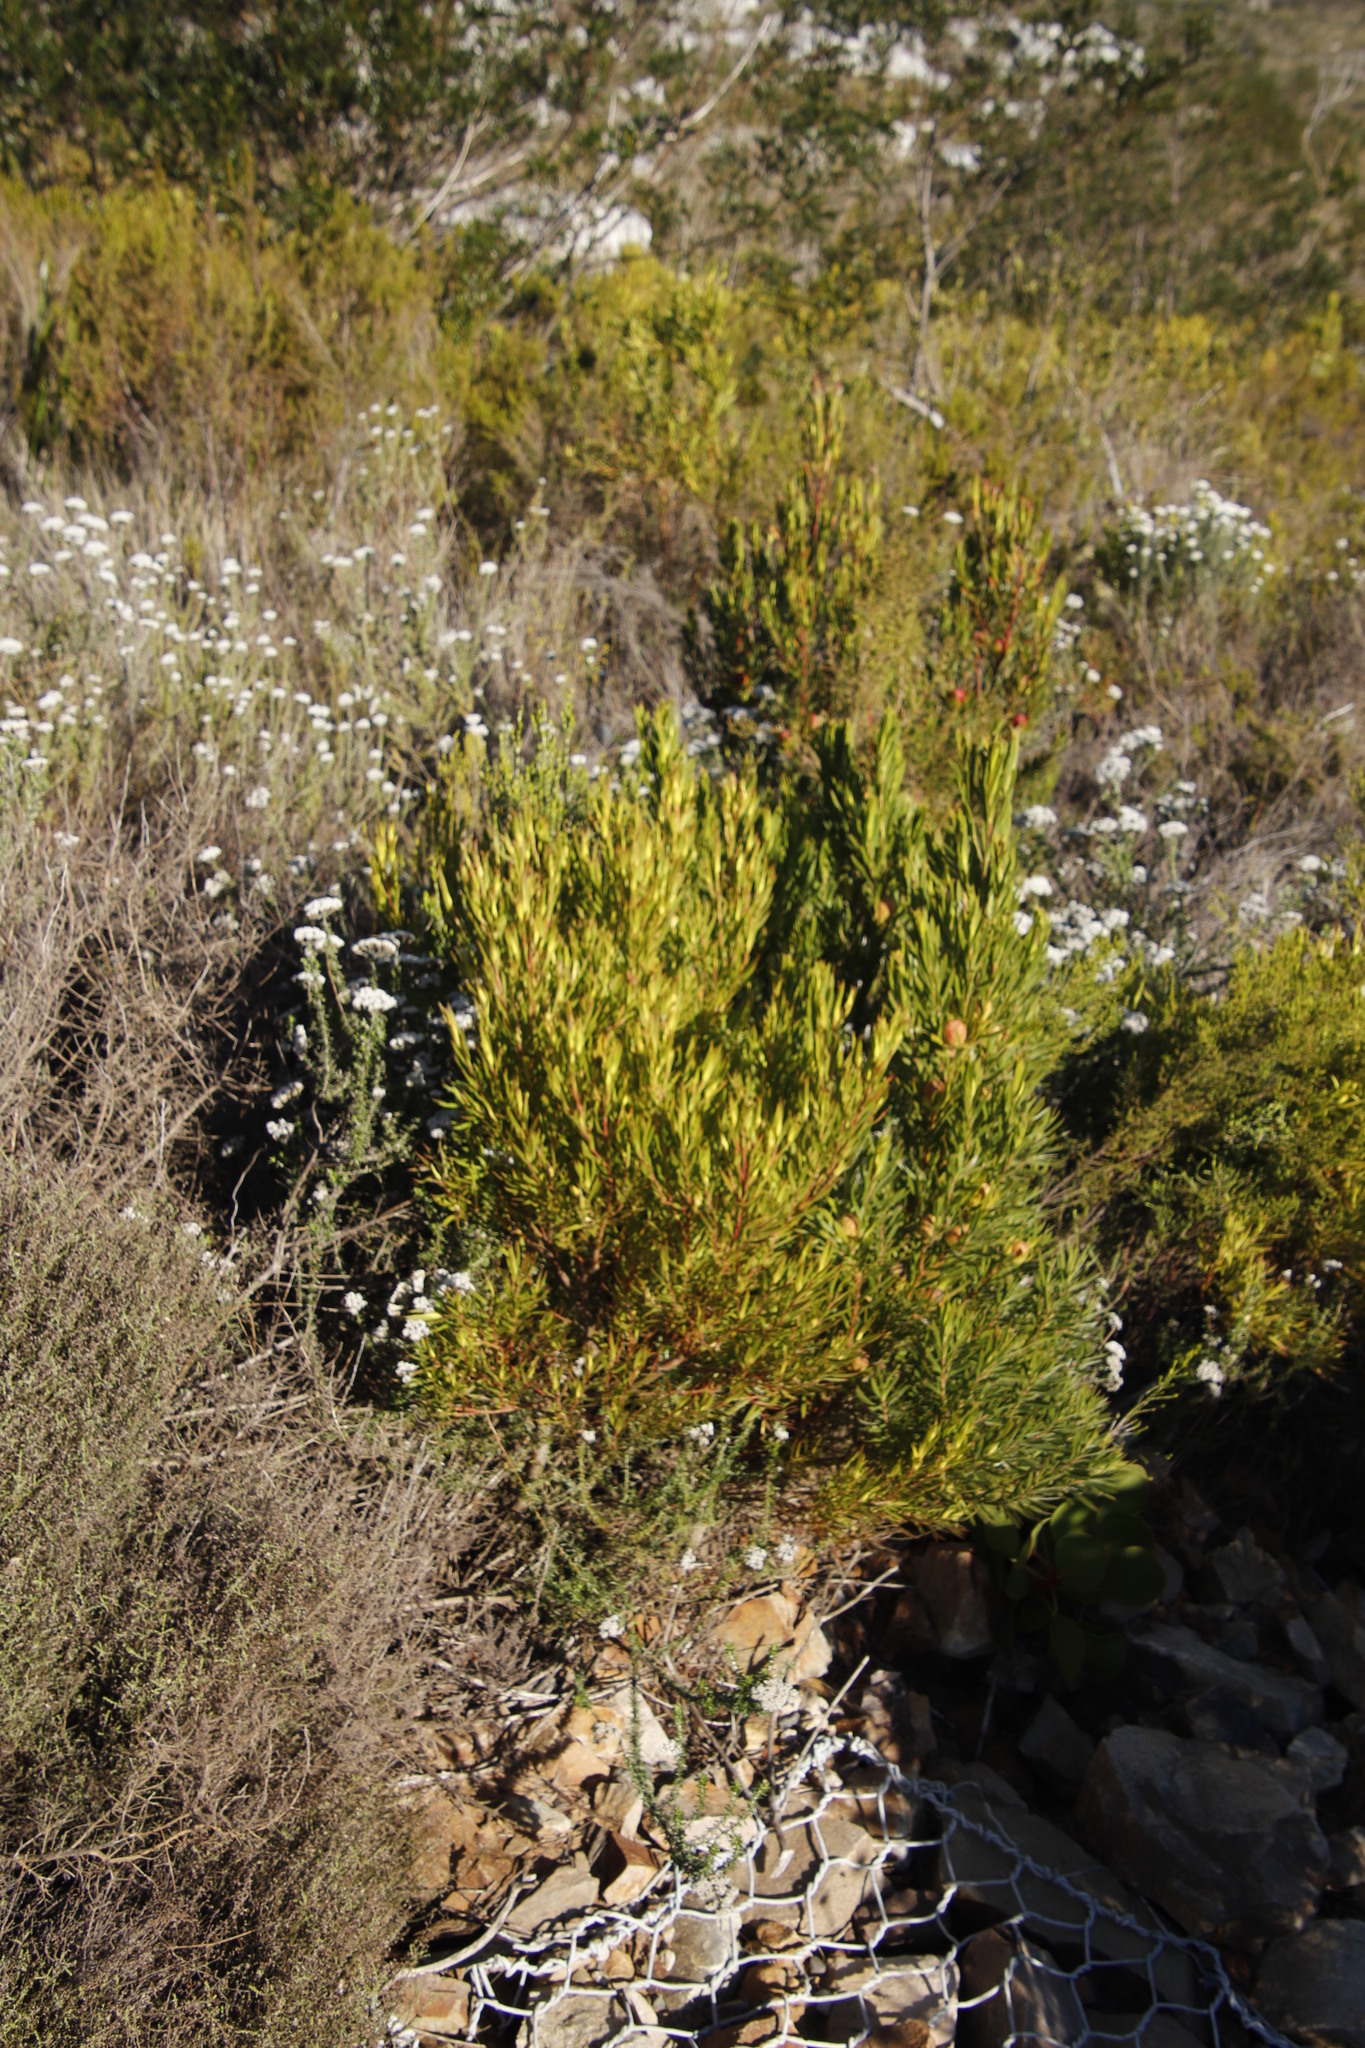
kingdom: Plantae
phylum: Tracheophyta
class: Magnoliopsida
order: Proteales
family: Proteaceae
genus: Leucadendron
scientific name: Leucadendron xanthoconus
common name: Sickle-leaf conebush
